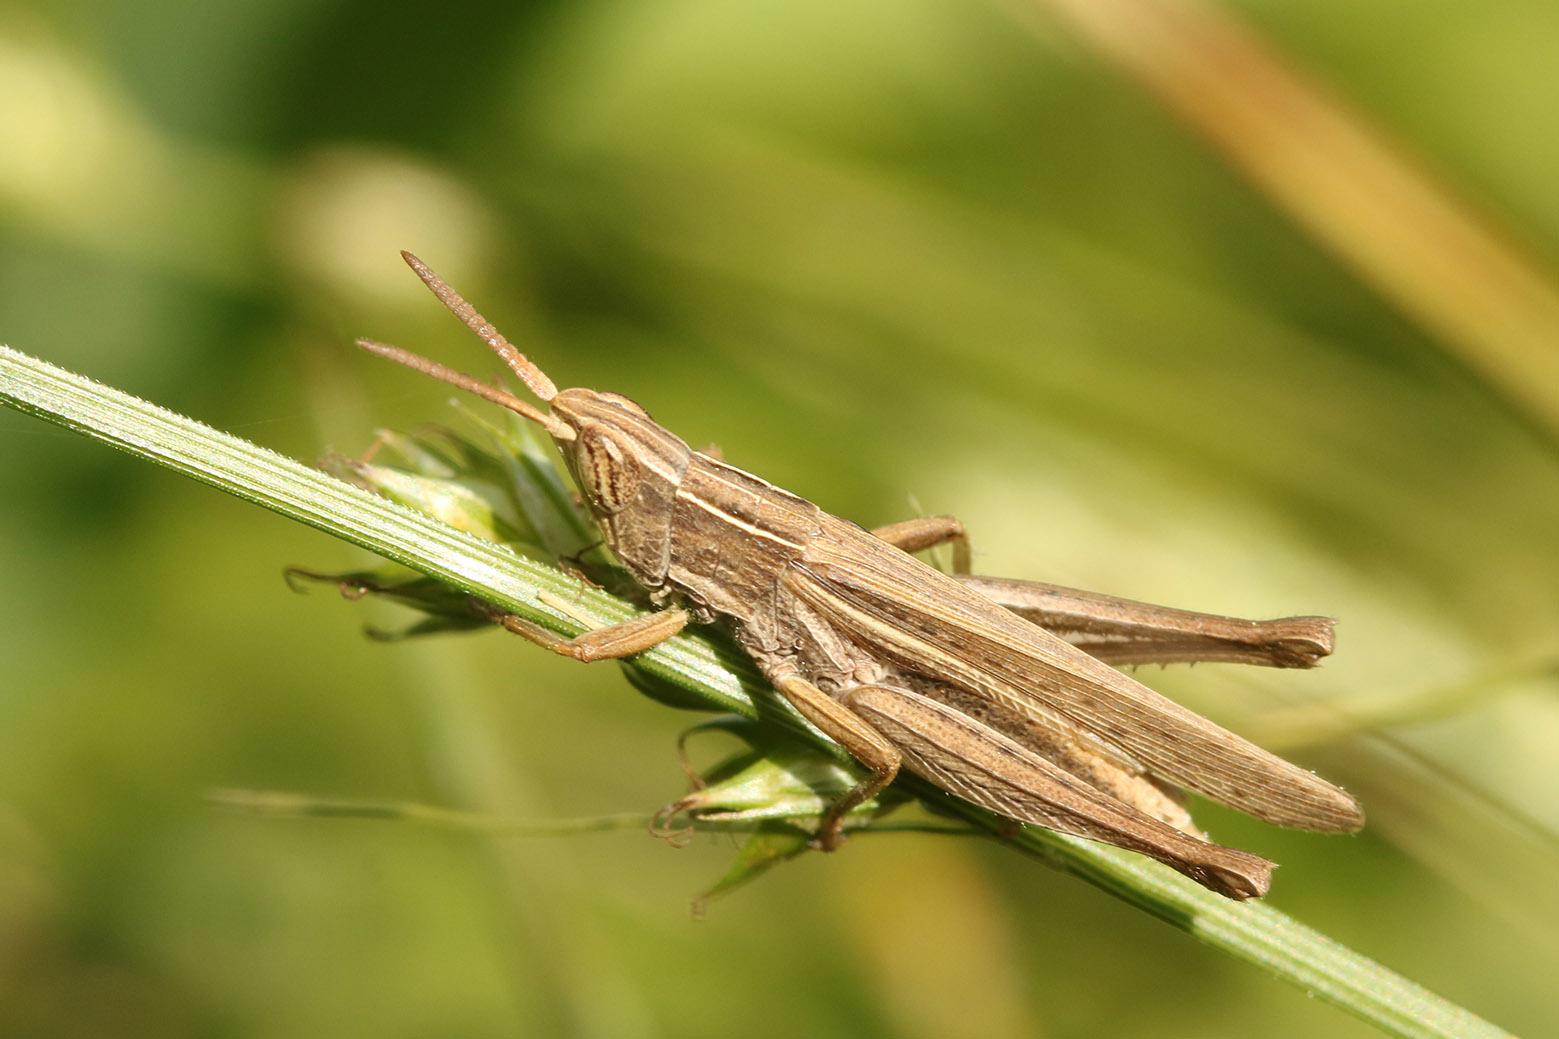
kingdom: Animalia
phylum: Arthropoda
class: Insecta
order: Orthoptera
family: Acrididae
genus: Laplatacris
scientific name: Laplatacris dispar
